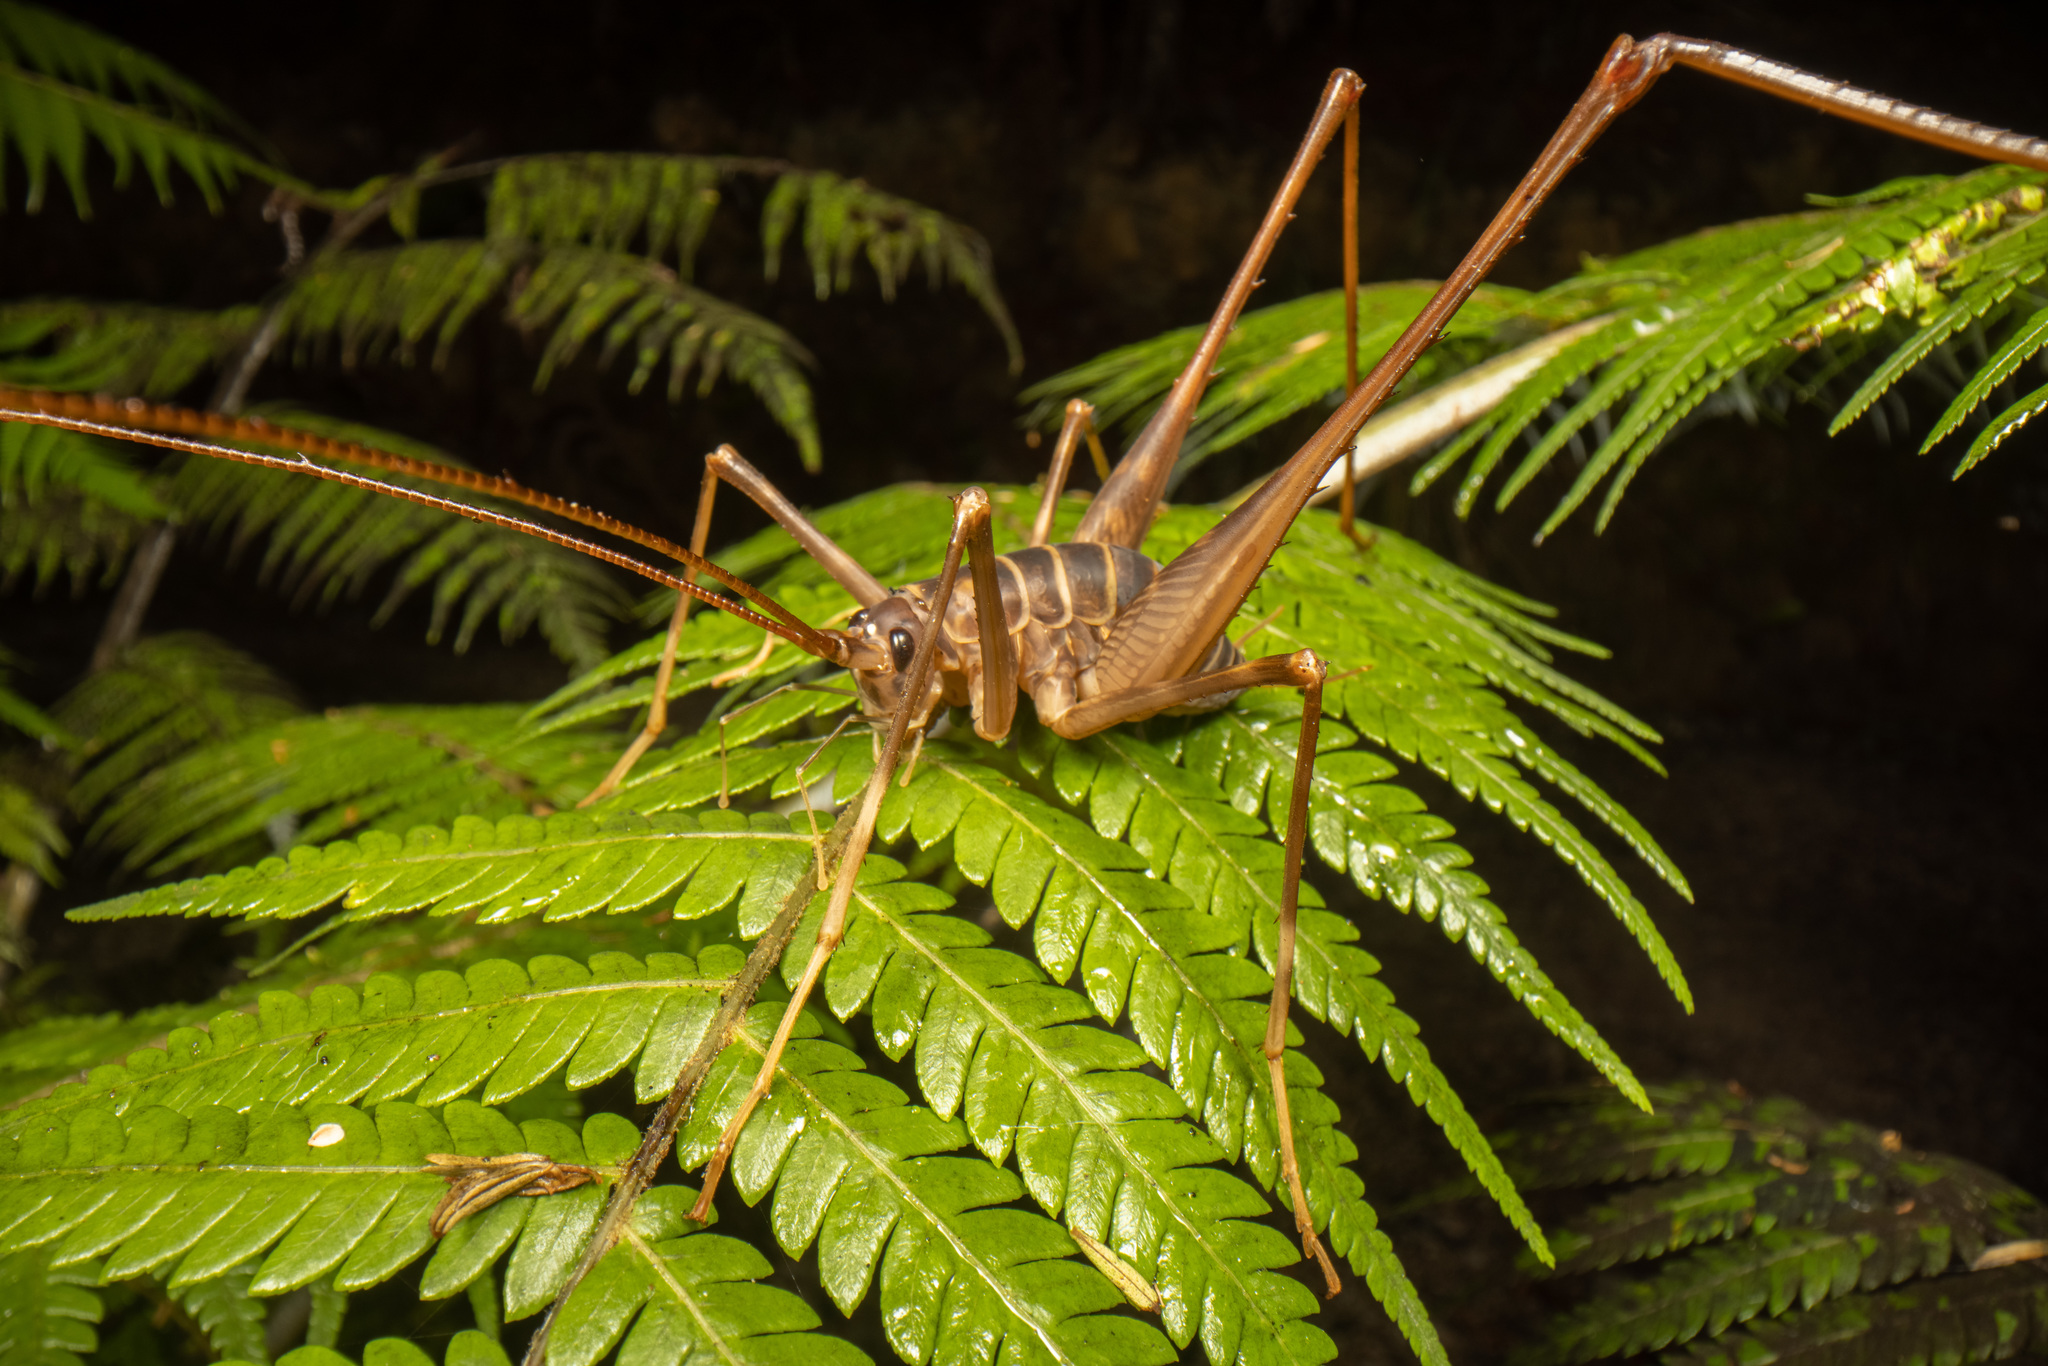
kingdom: Animalia
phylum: Arthropoda
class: Insecta
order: Orthoptera
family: Rhaphidophoridae
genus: Pachyrhamma
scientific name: Pachyrhamma acanthocera
